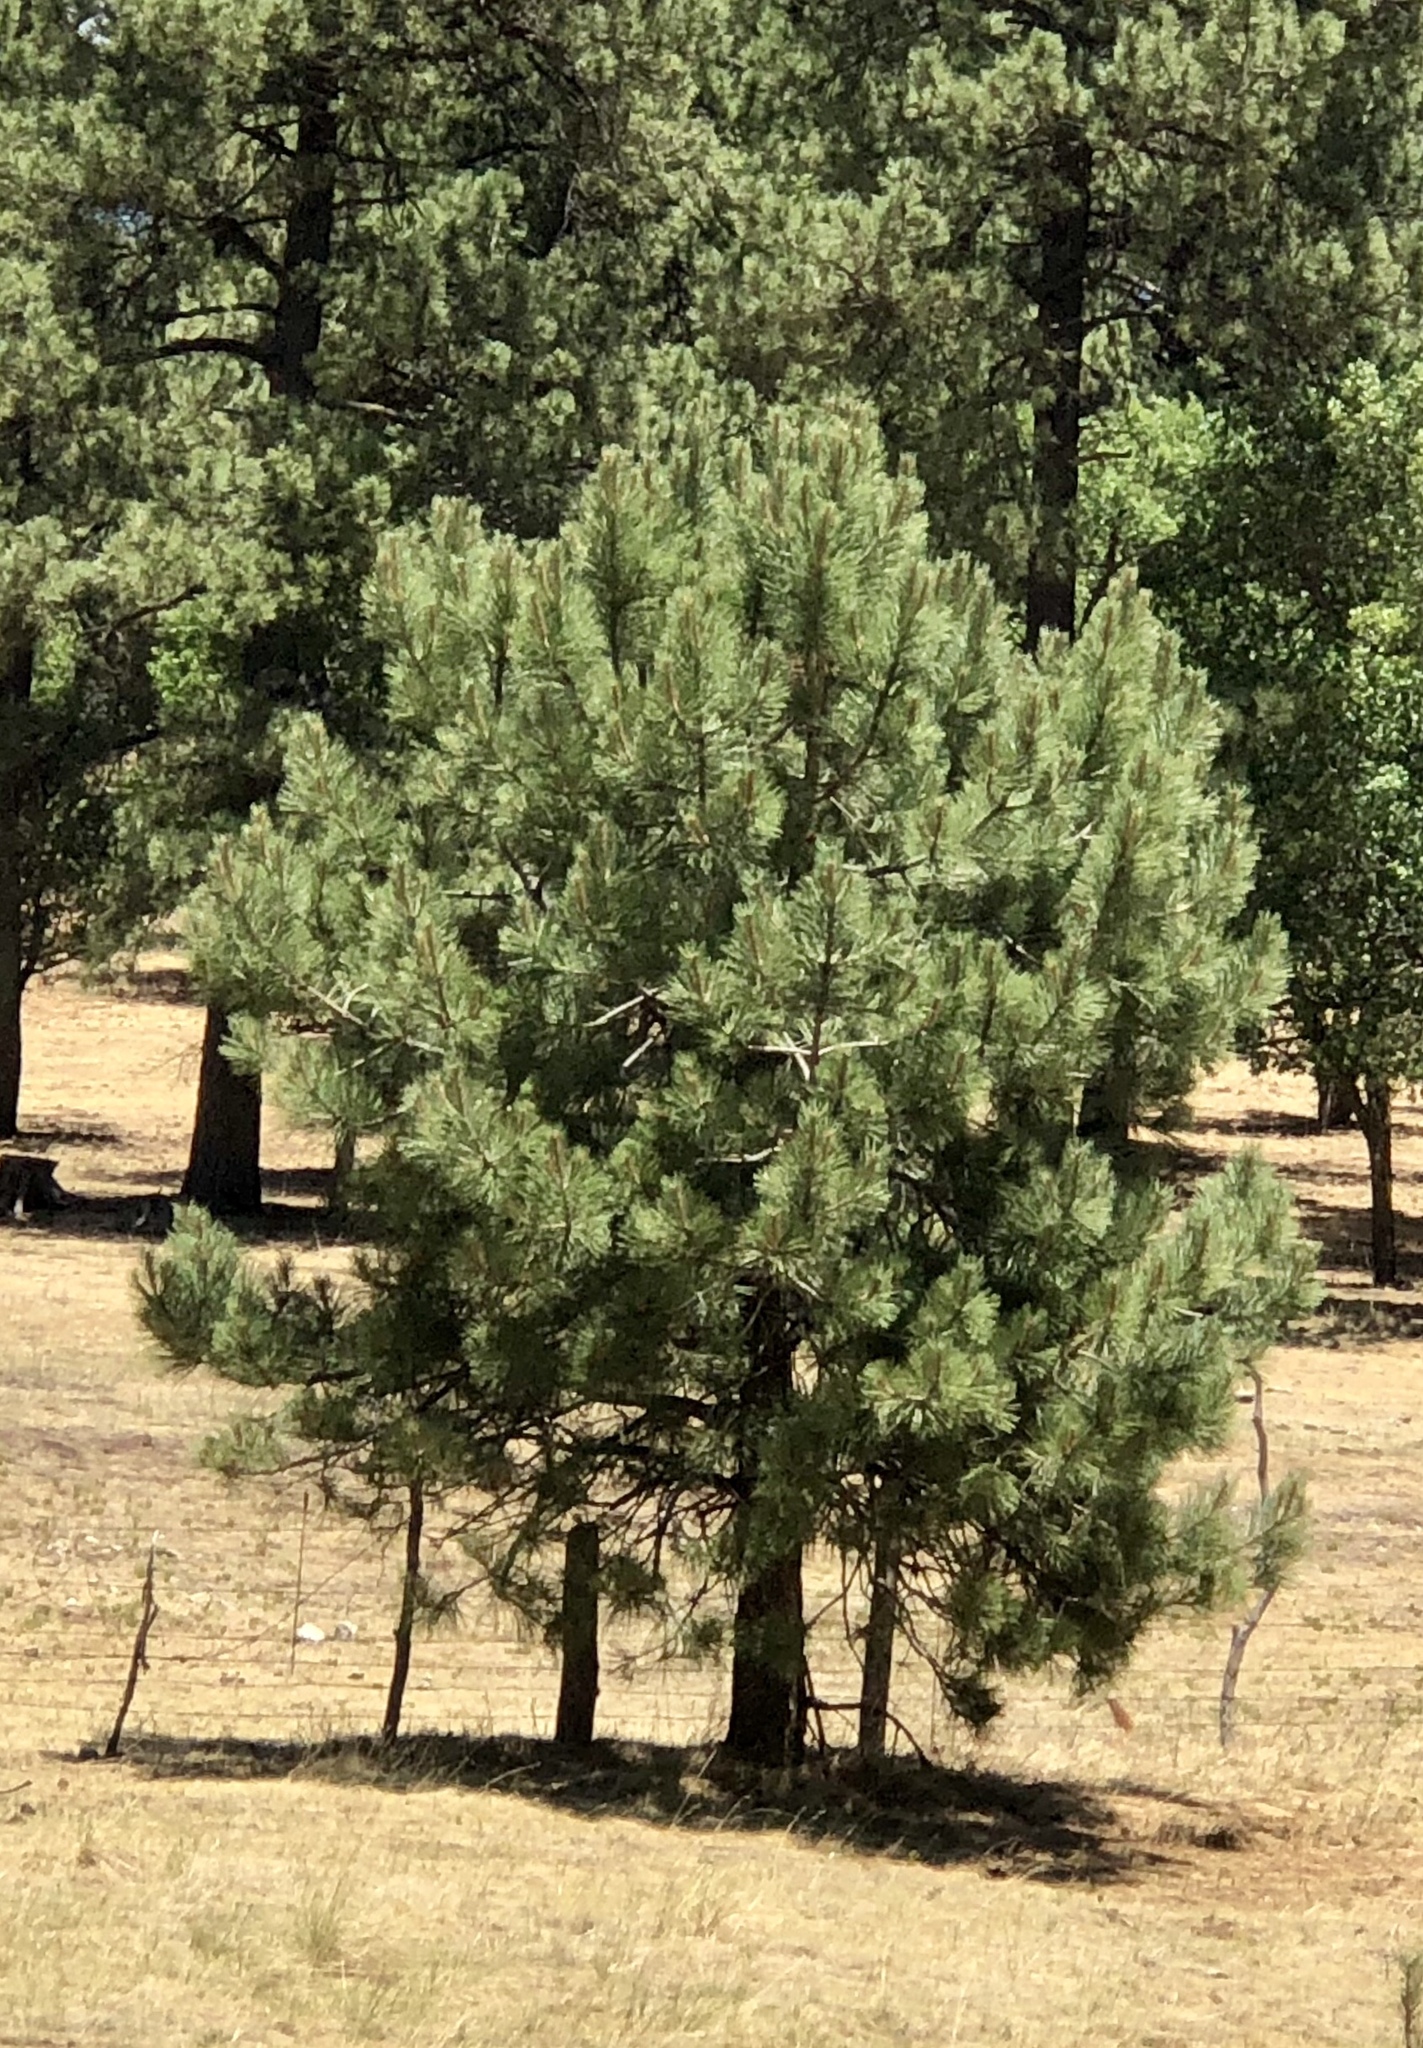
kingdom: Plantae
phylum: Tracheophyta
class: Pinopsida
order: Pinales
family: Pinaceae
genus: Pinus
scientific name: Pinus ponderosa
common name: Western yellow-pine
